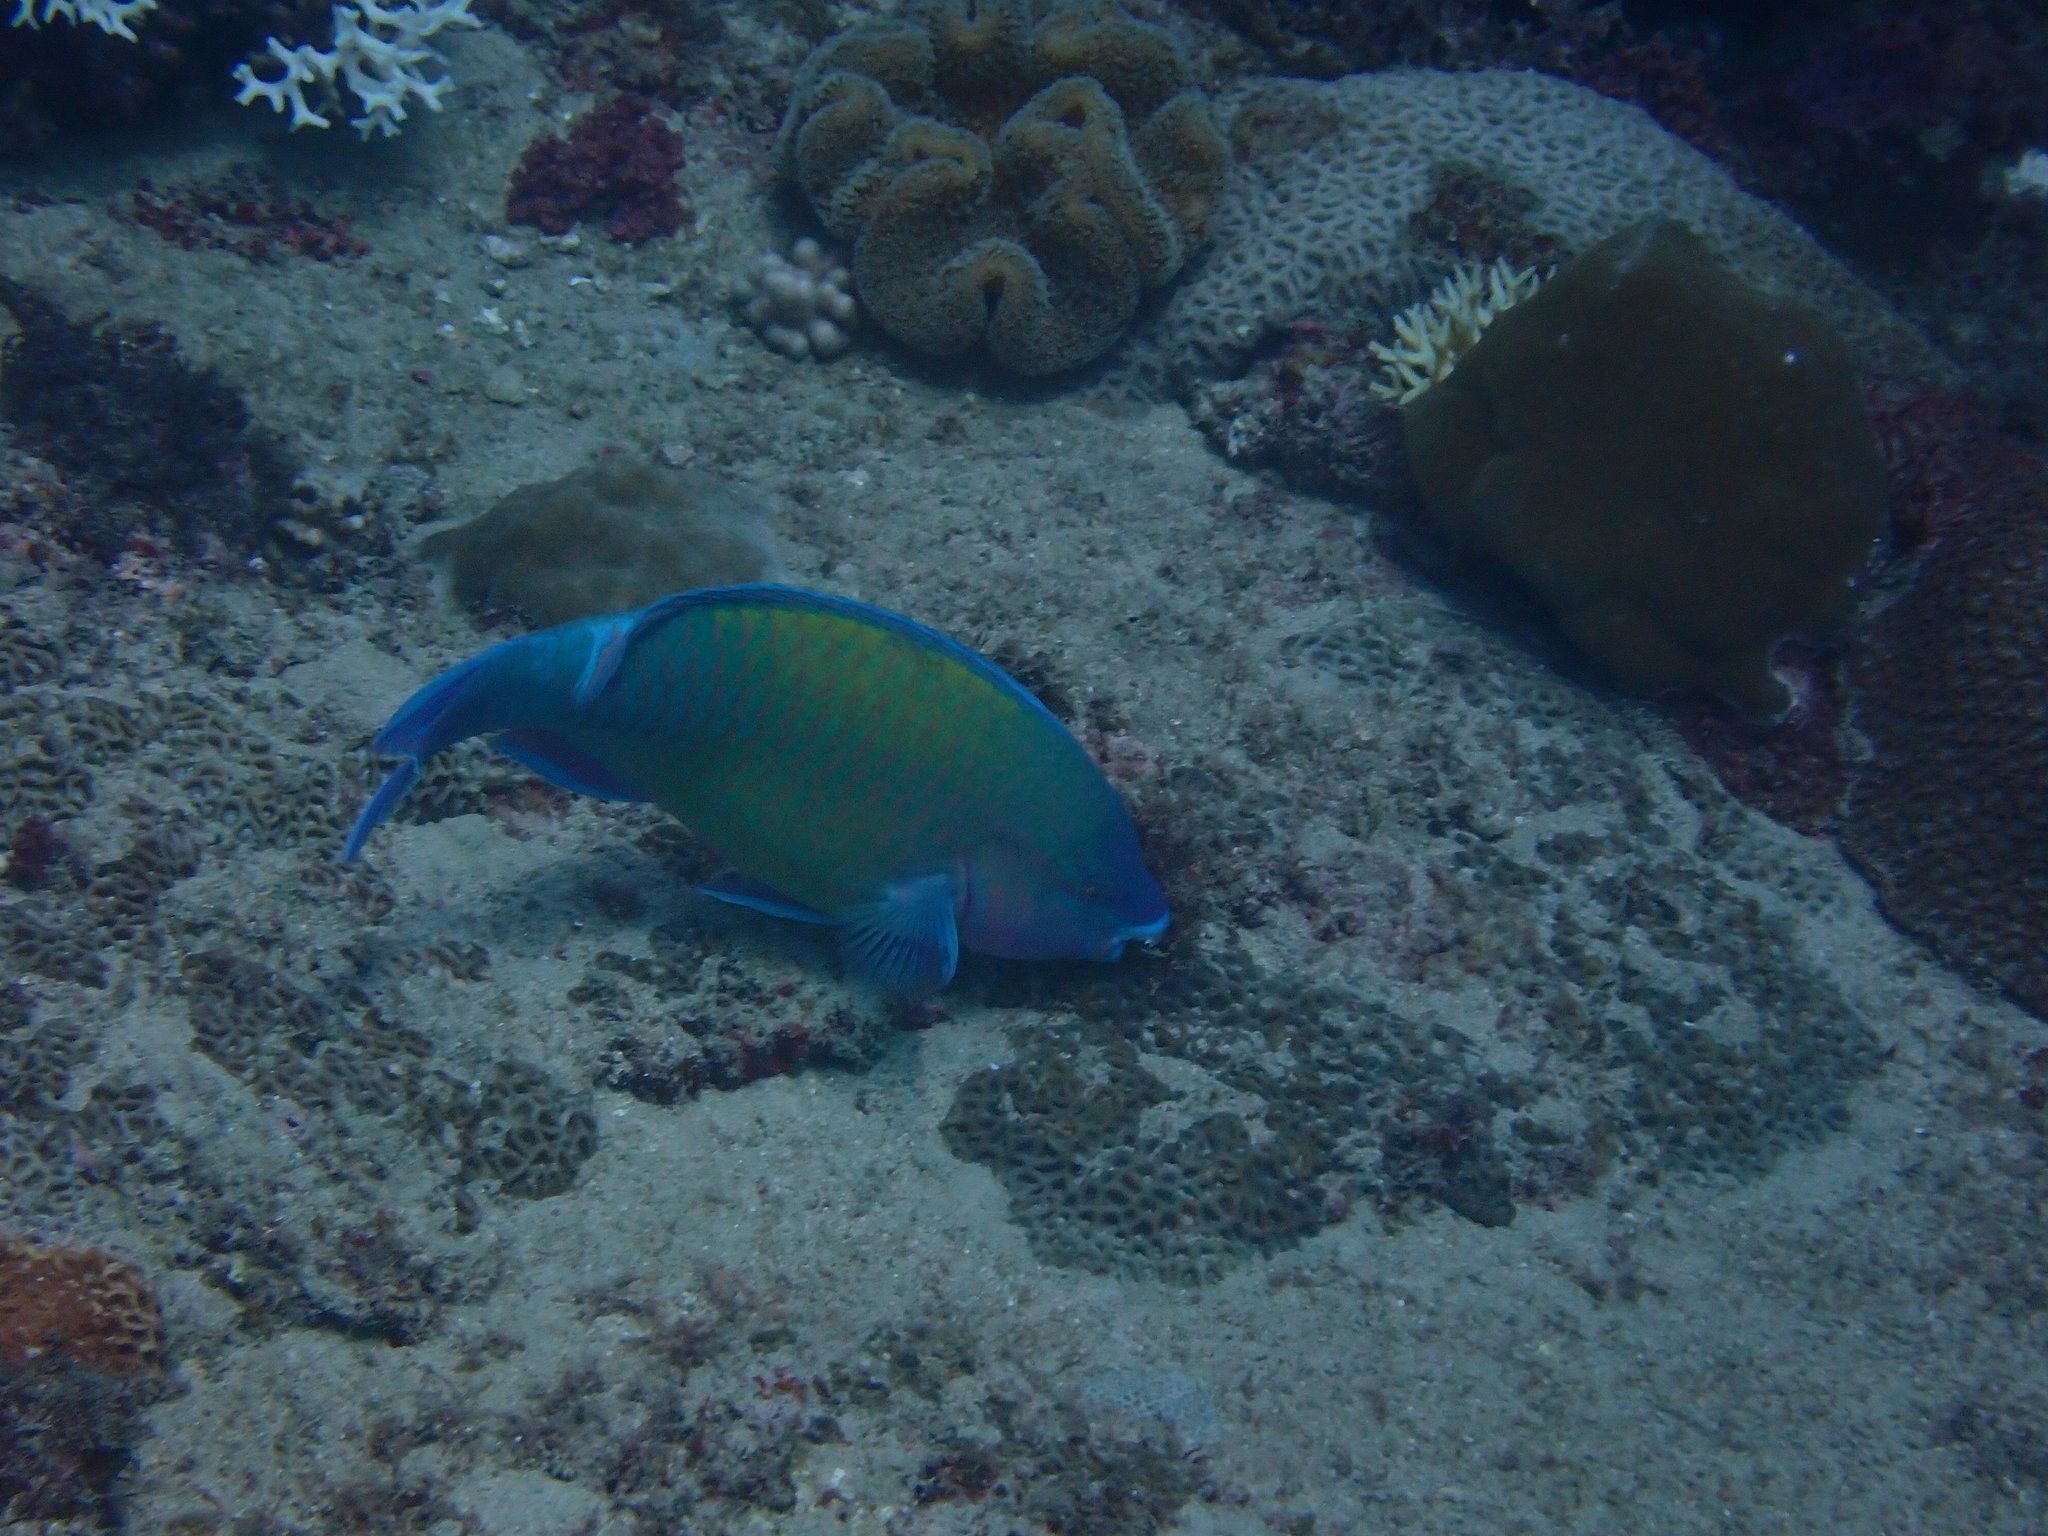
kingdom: Animalia
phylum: Chordata
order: Perciformes
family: Scaridae
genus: Scarus
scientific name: Scarus psittacus
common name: Palenose parrotfish
